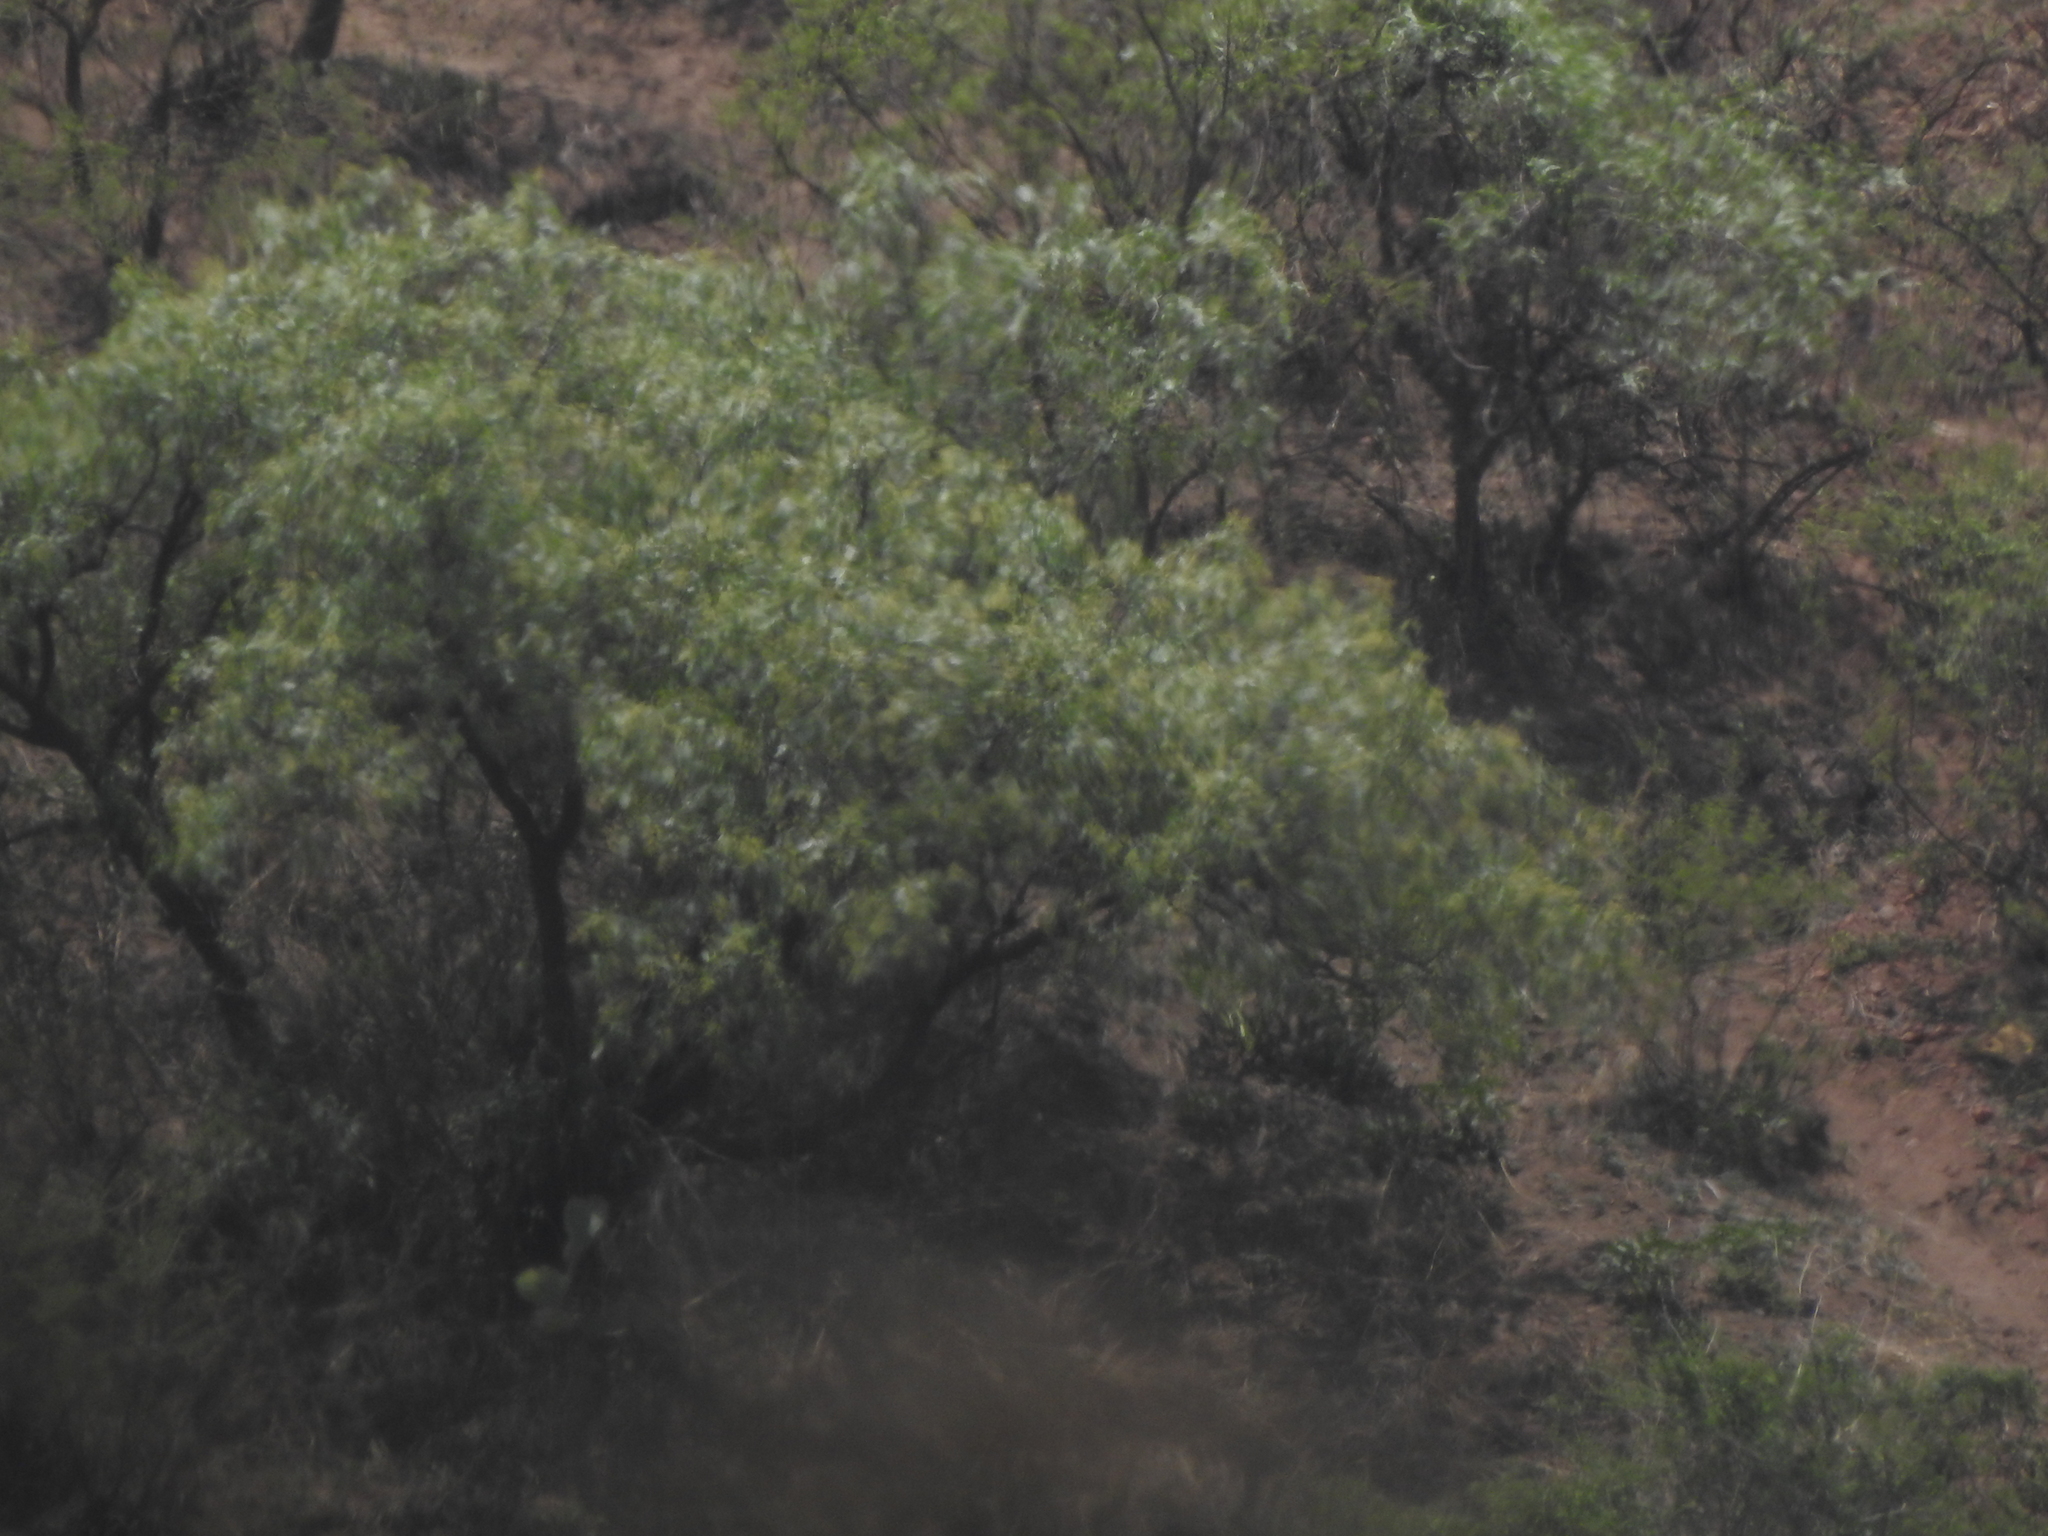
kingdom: Plantae
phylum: Tracheophyta
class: Magnoliopsida
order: Sapindales
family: Anacardiaceae
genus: Schinus
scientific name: Schinus molle
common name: Peruvian peppertree
